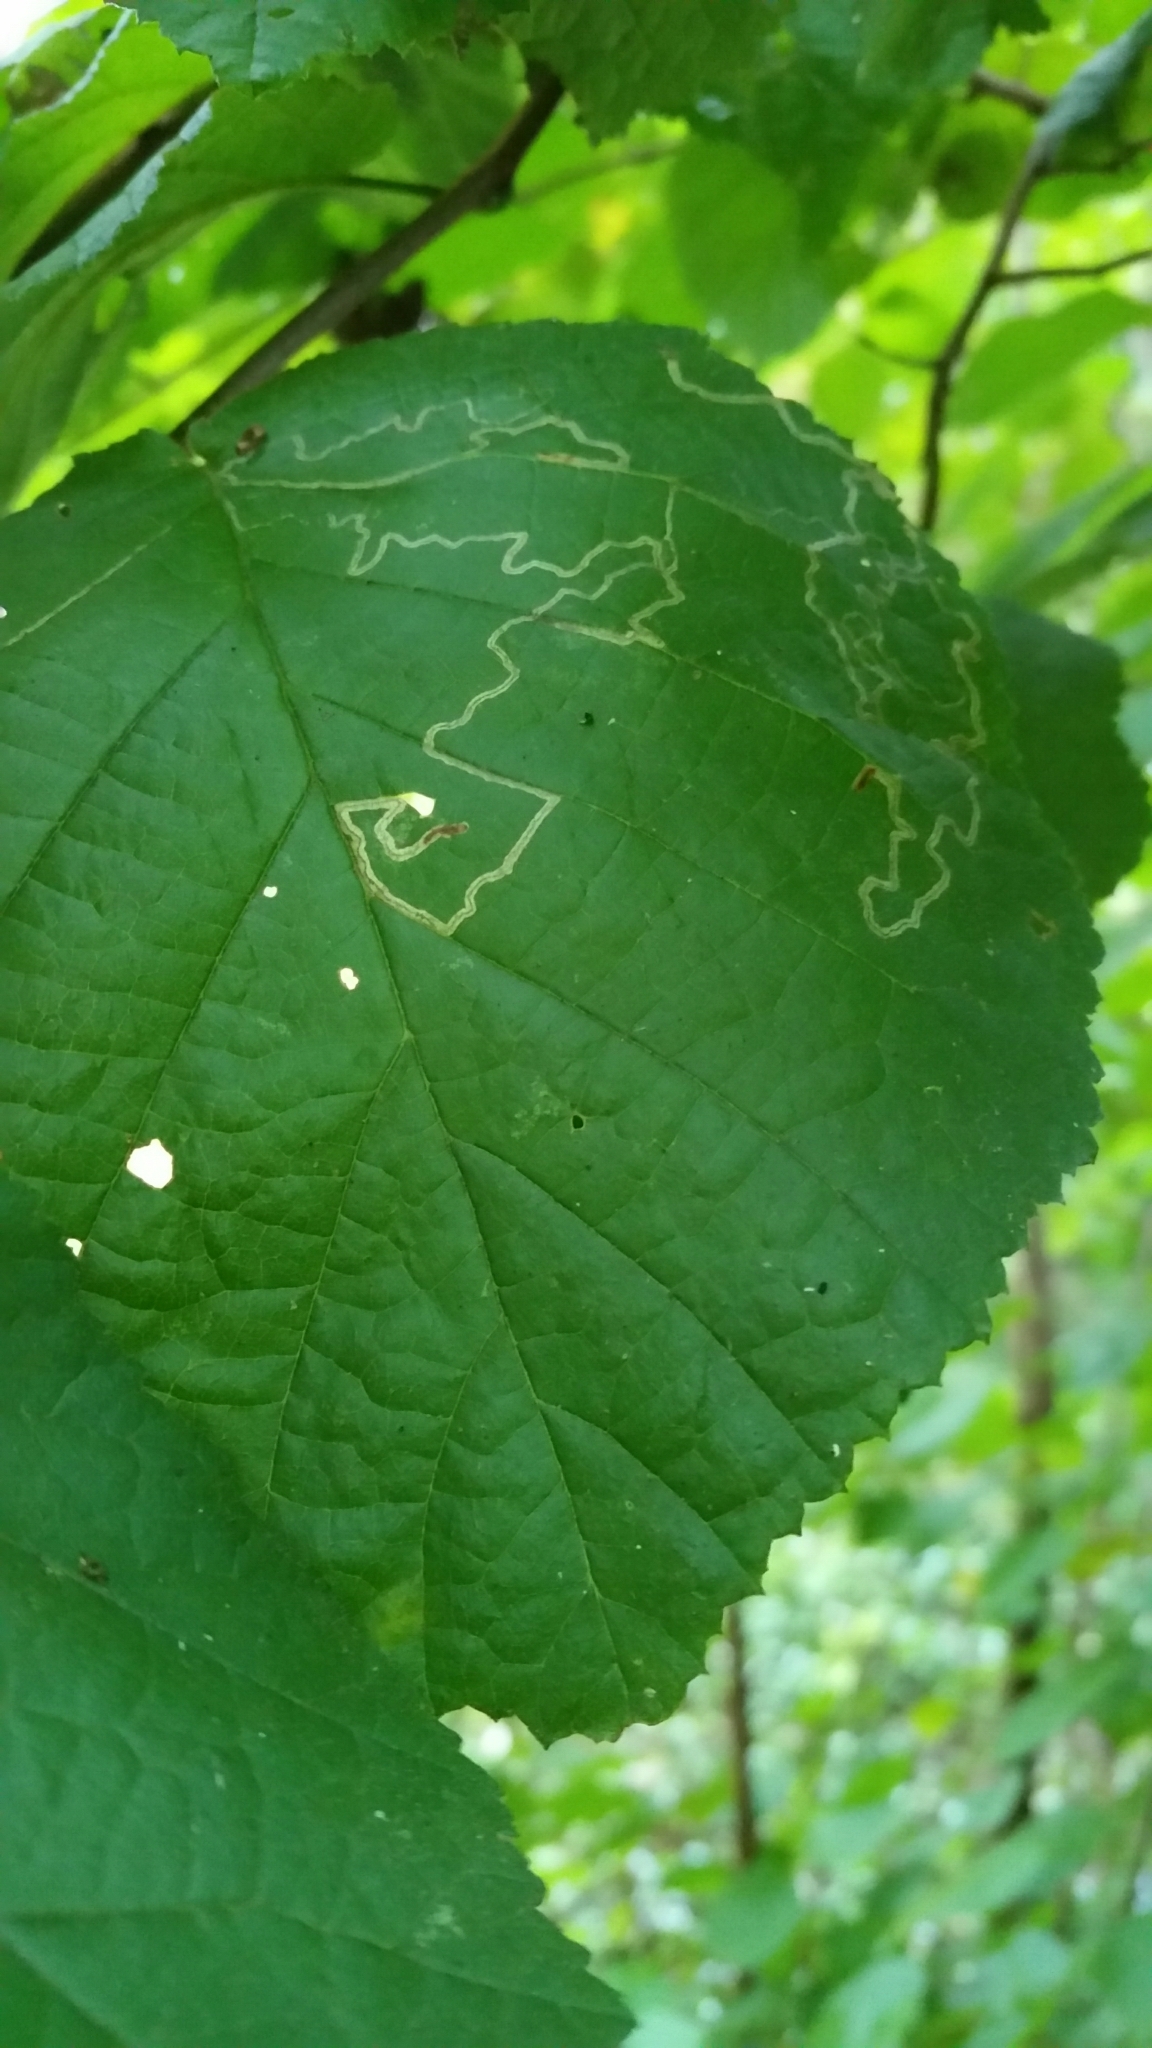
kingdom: Animalia
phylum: Arthropoda
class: Insecta
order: Lepidoptera
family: Nepticulidae
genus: Stigmella
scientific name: Stigmella microtheriella
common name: Nut-tree pigmy
